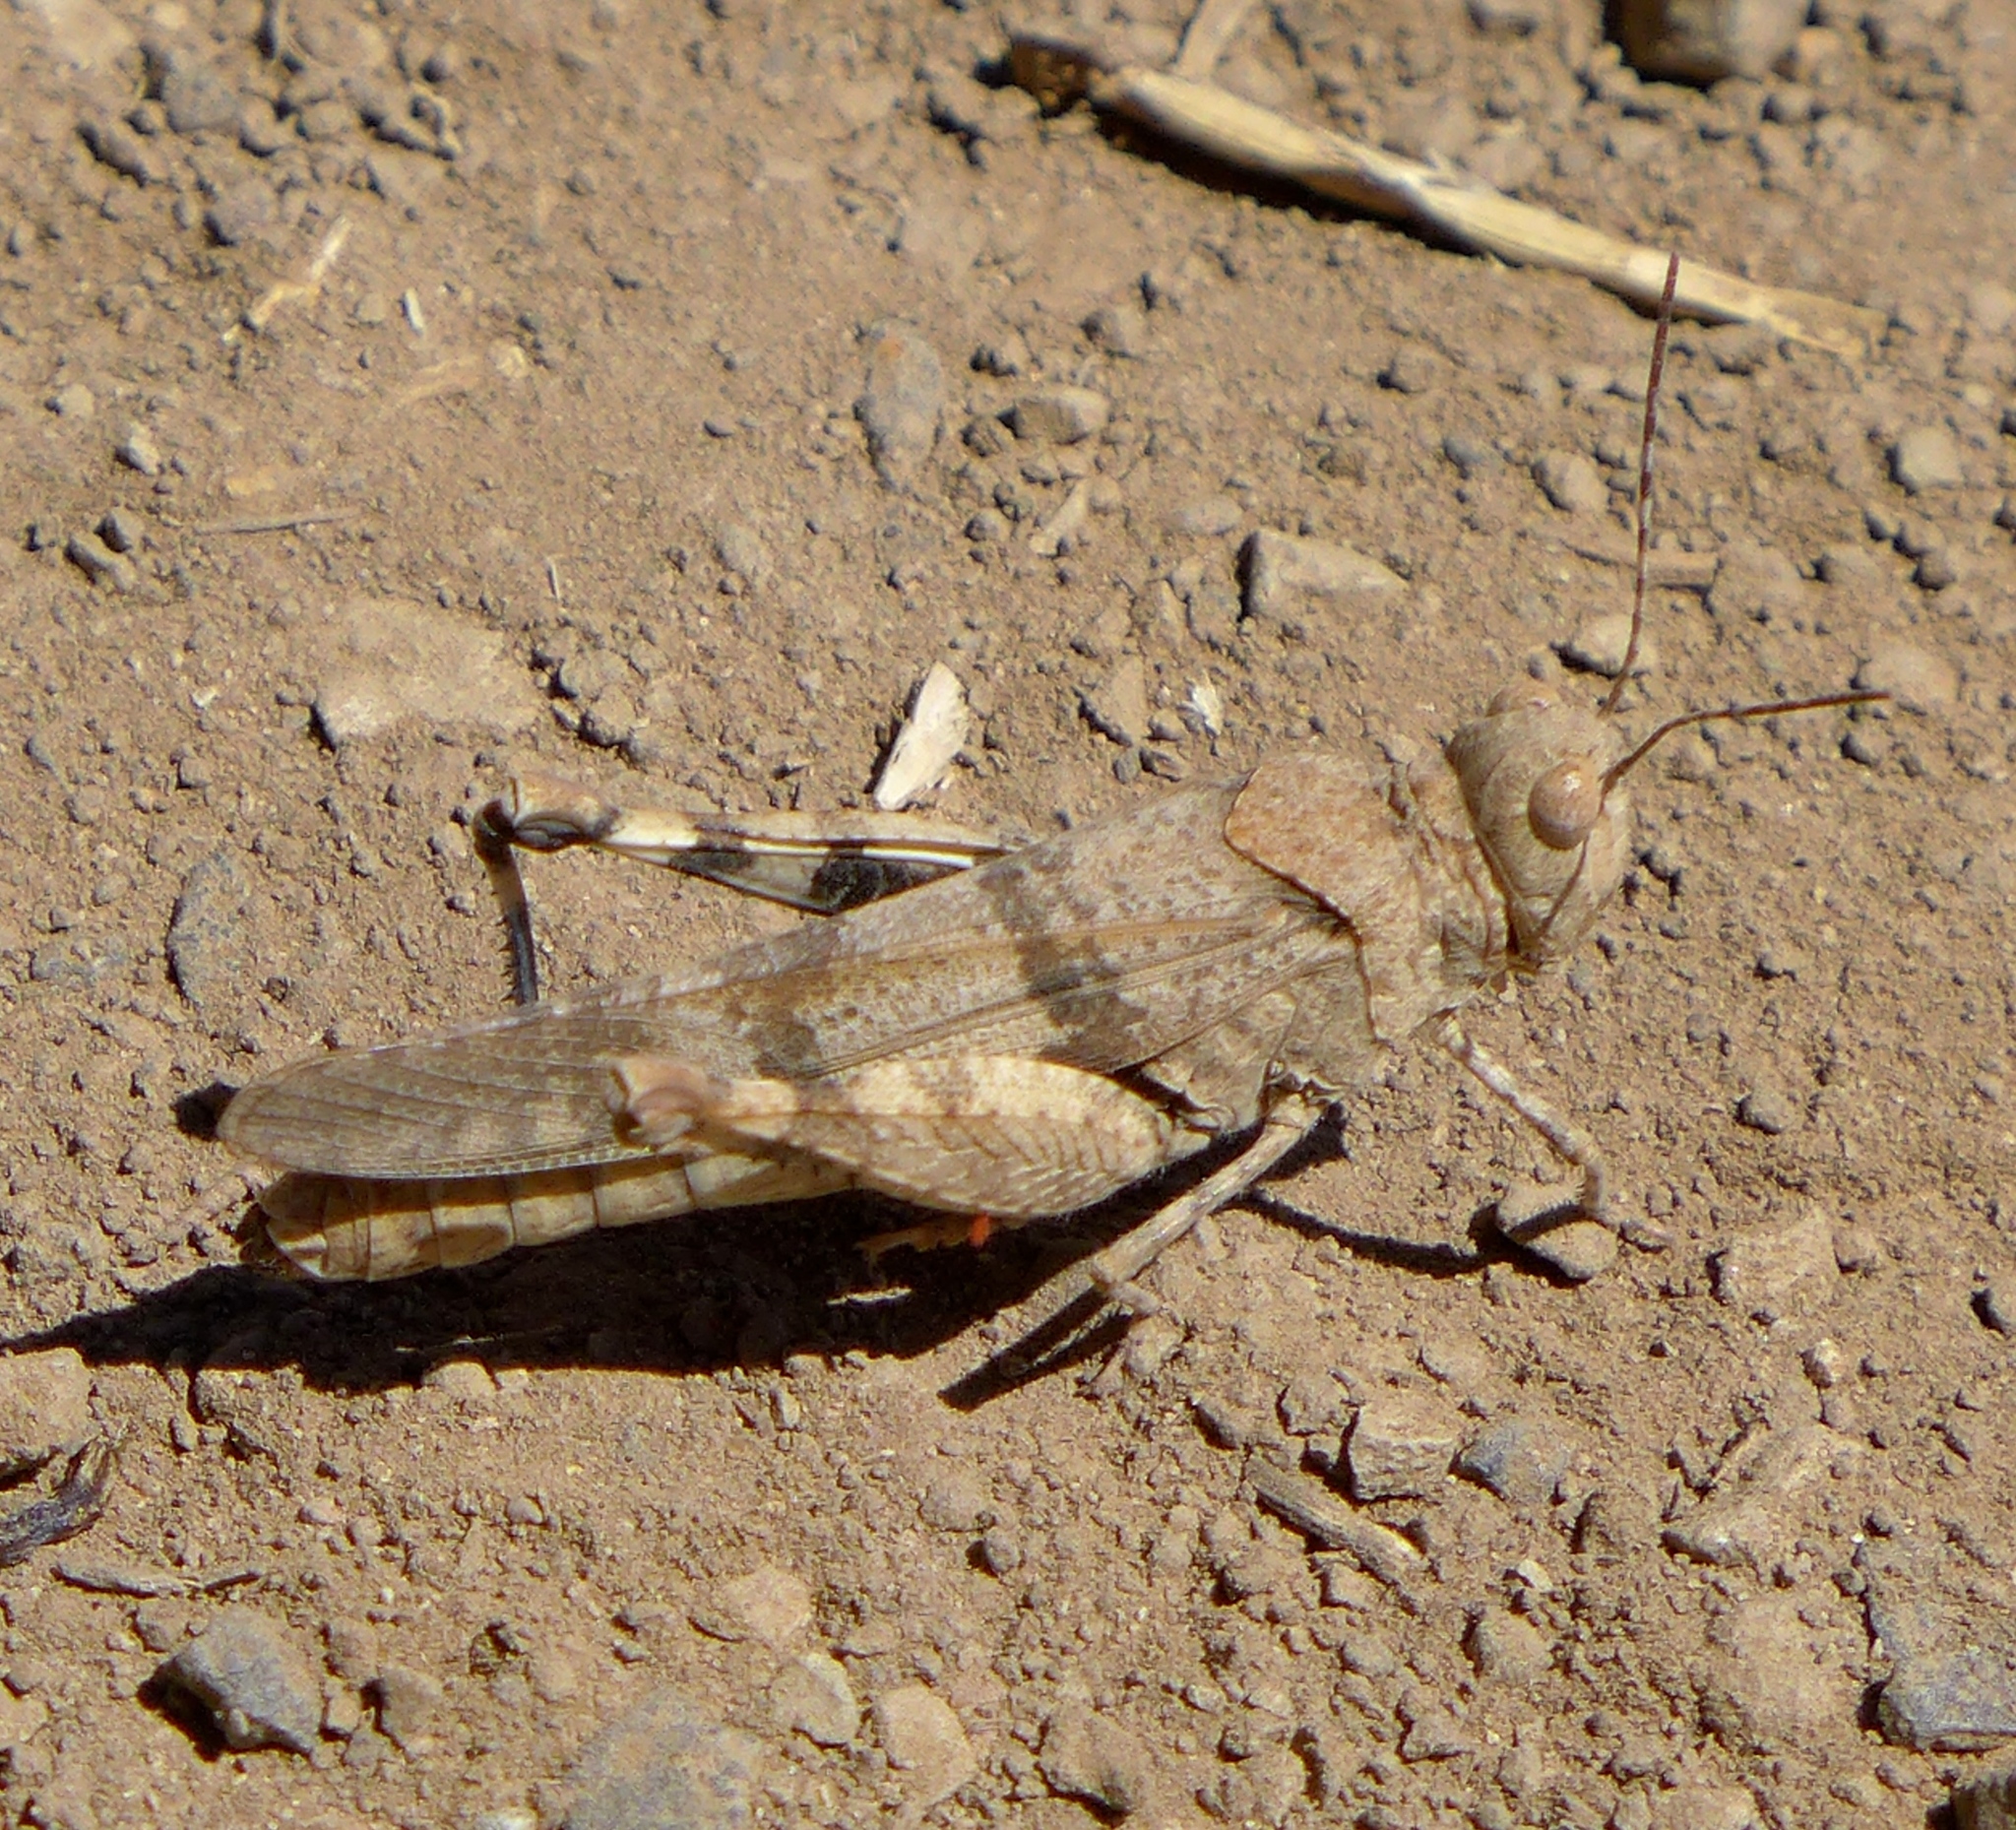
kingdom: Animalia
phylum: Arthropoda
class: Insecta
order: Orthoptera
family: Acrididae
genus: Dissosteira
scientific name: Dissosteira pictipennis
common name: California rose-winged grasshopper
